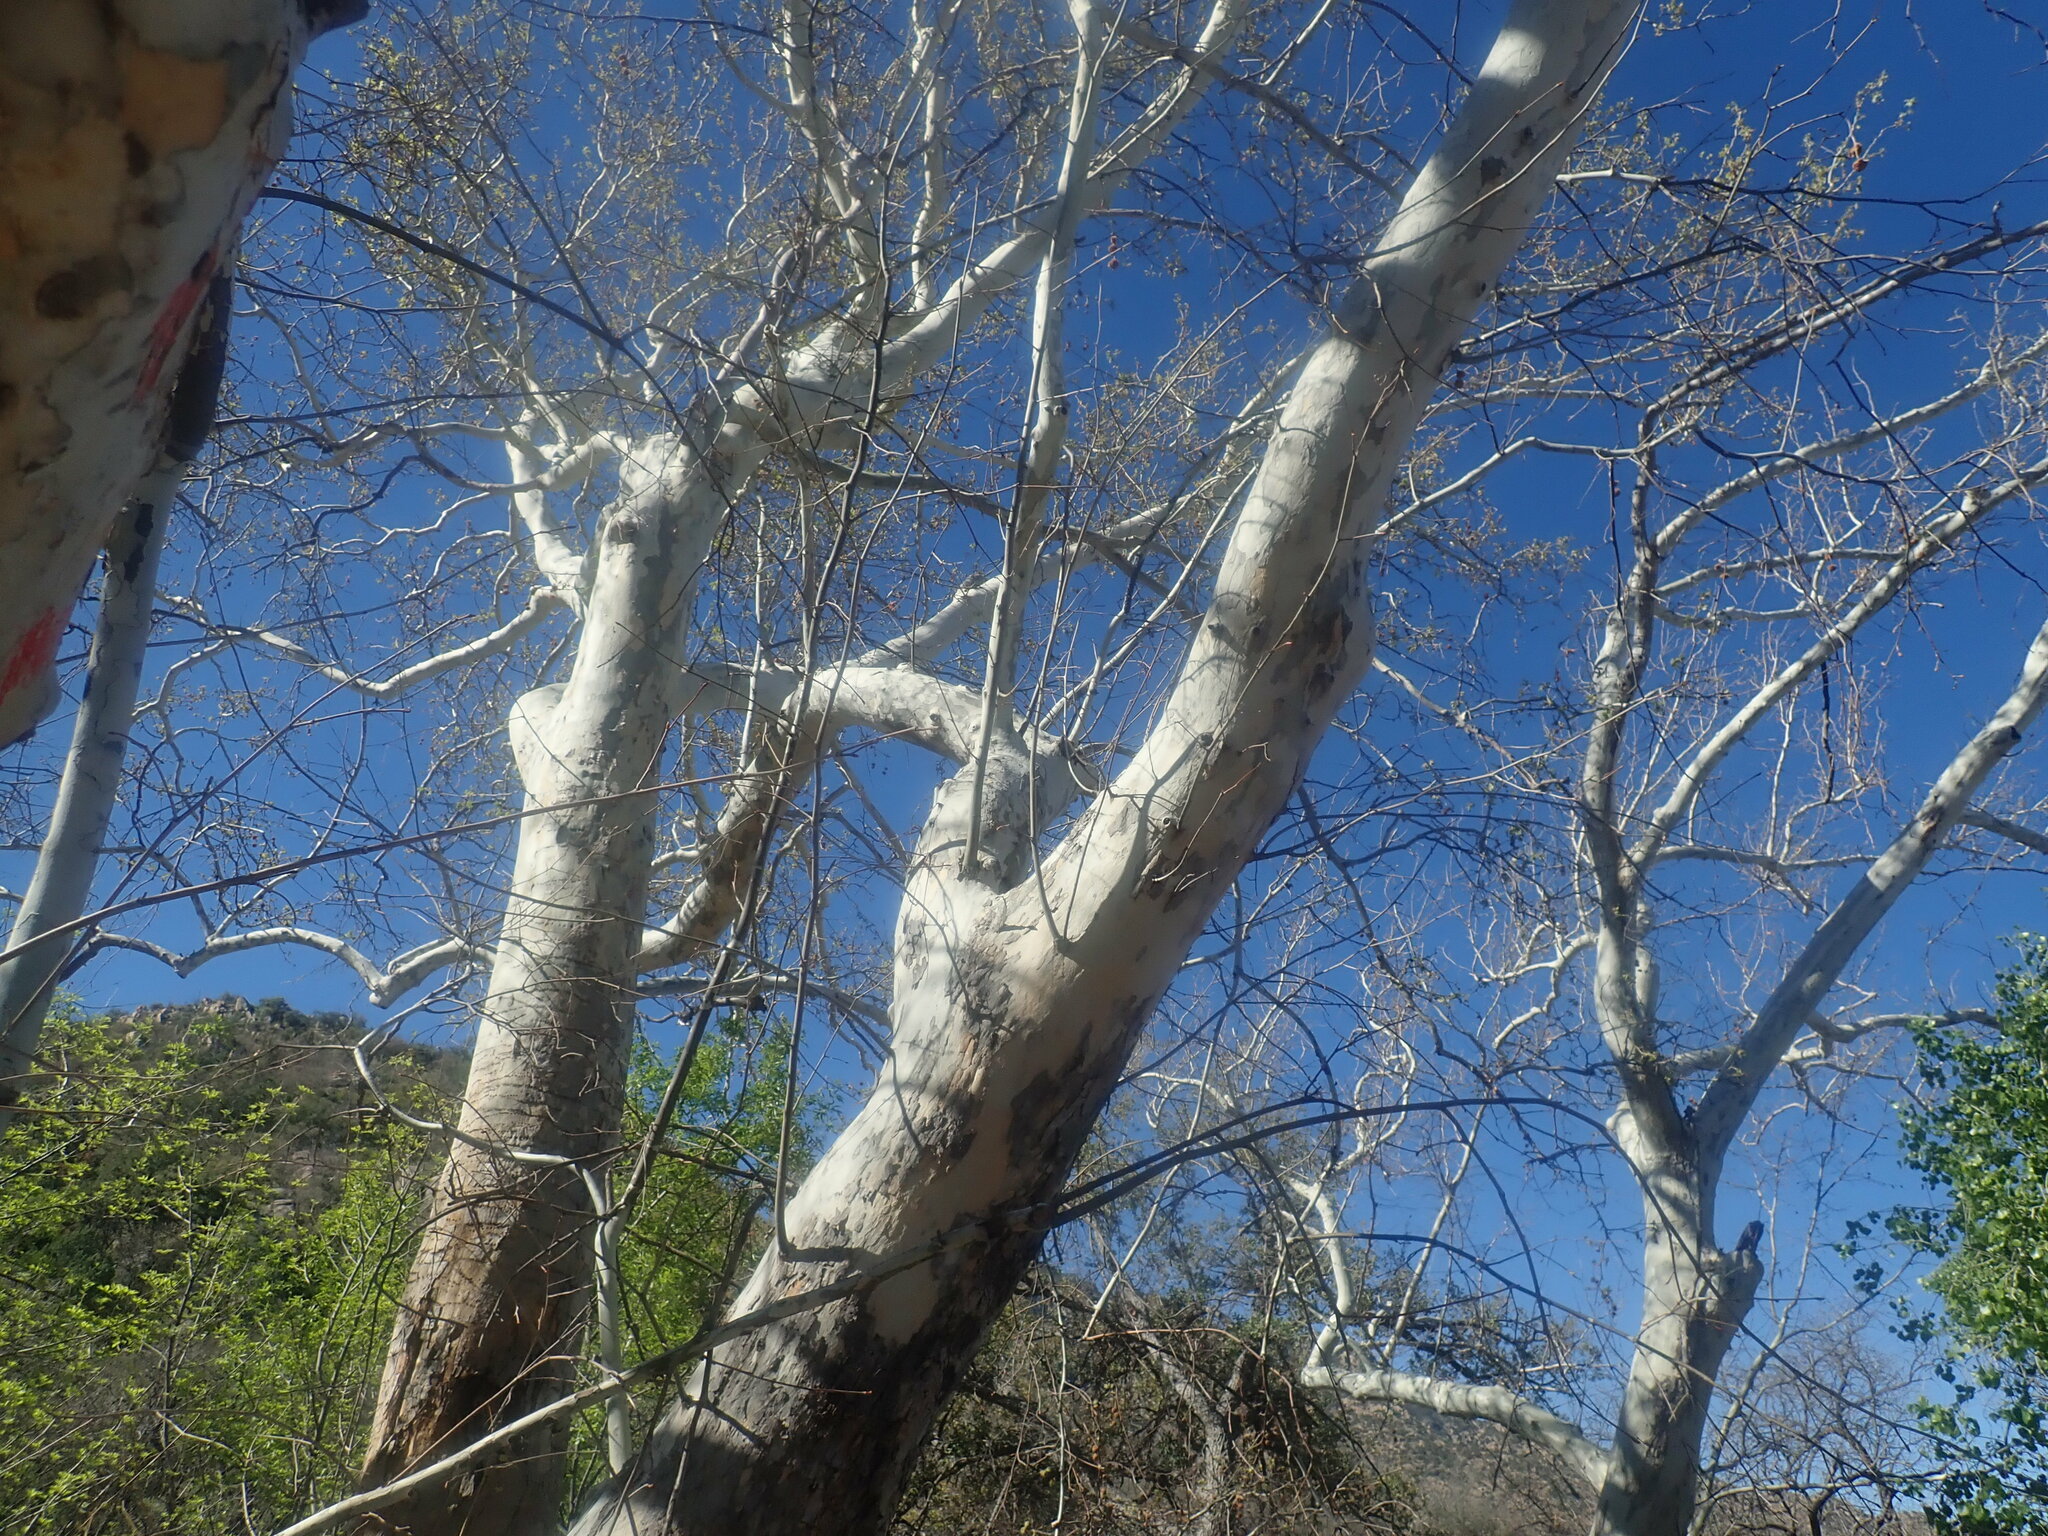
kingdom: Plantae
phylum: Tracheophyta
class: Magnoliopsida
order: Proteales
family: Platanaceae
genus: Platanus
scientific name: Platanus wrightii
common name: Arizona sycamore
